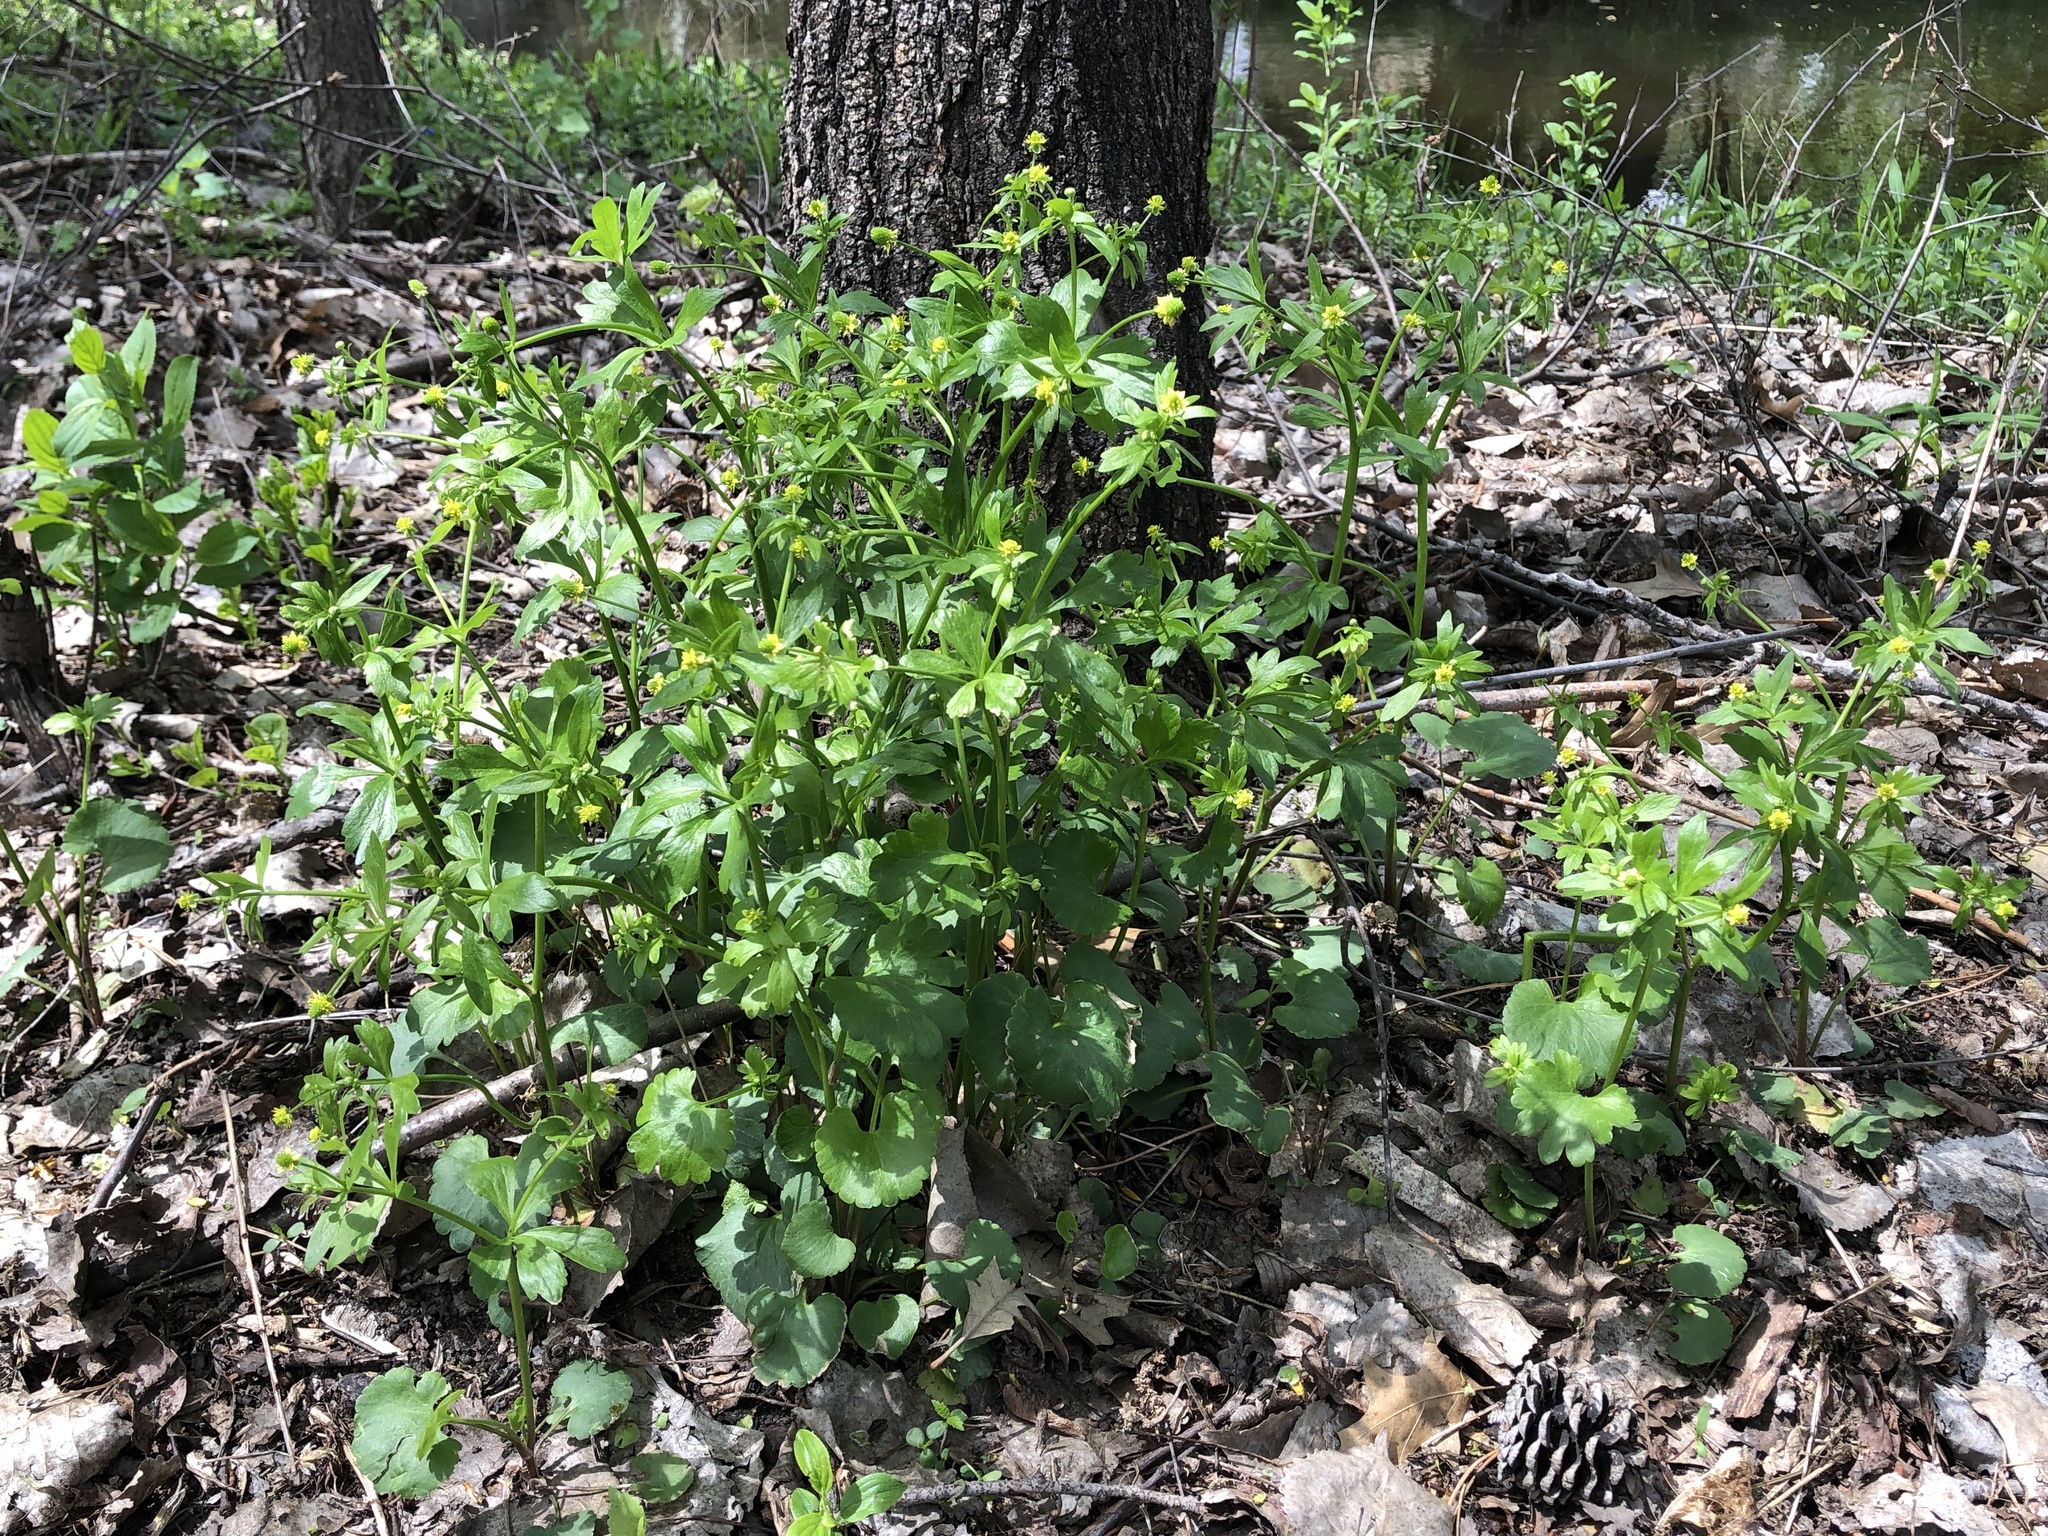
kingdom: Plantae
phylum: Tracheophyta
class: Magnoliopsida
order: Ranunculales
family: Ranunculaceae
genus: Ranunculus
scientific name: Ranunculus abortivus
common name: Early wood buttercup
